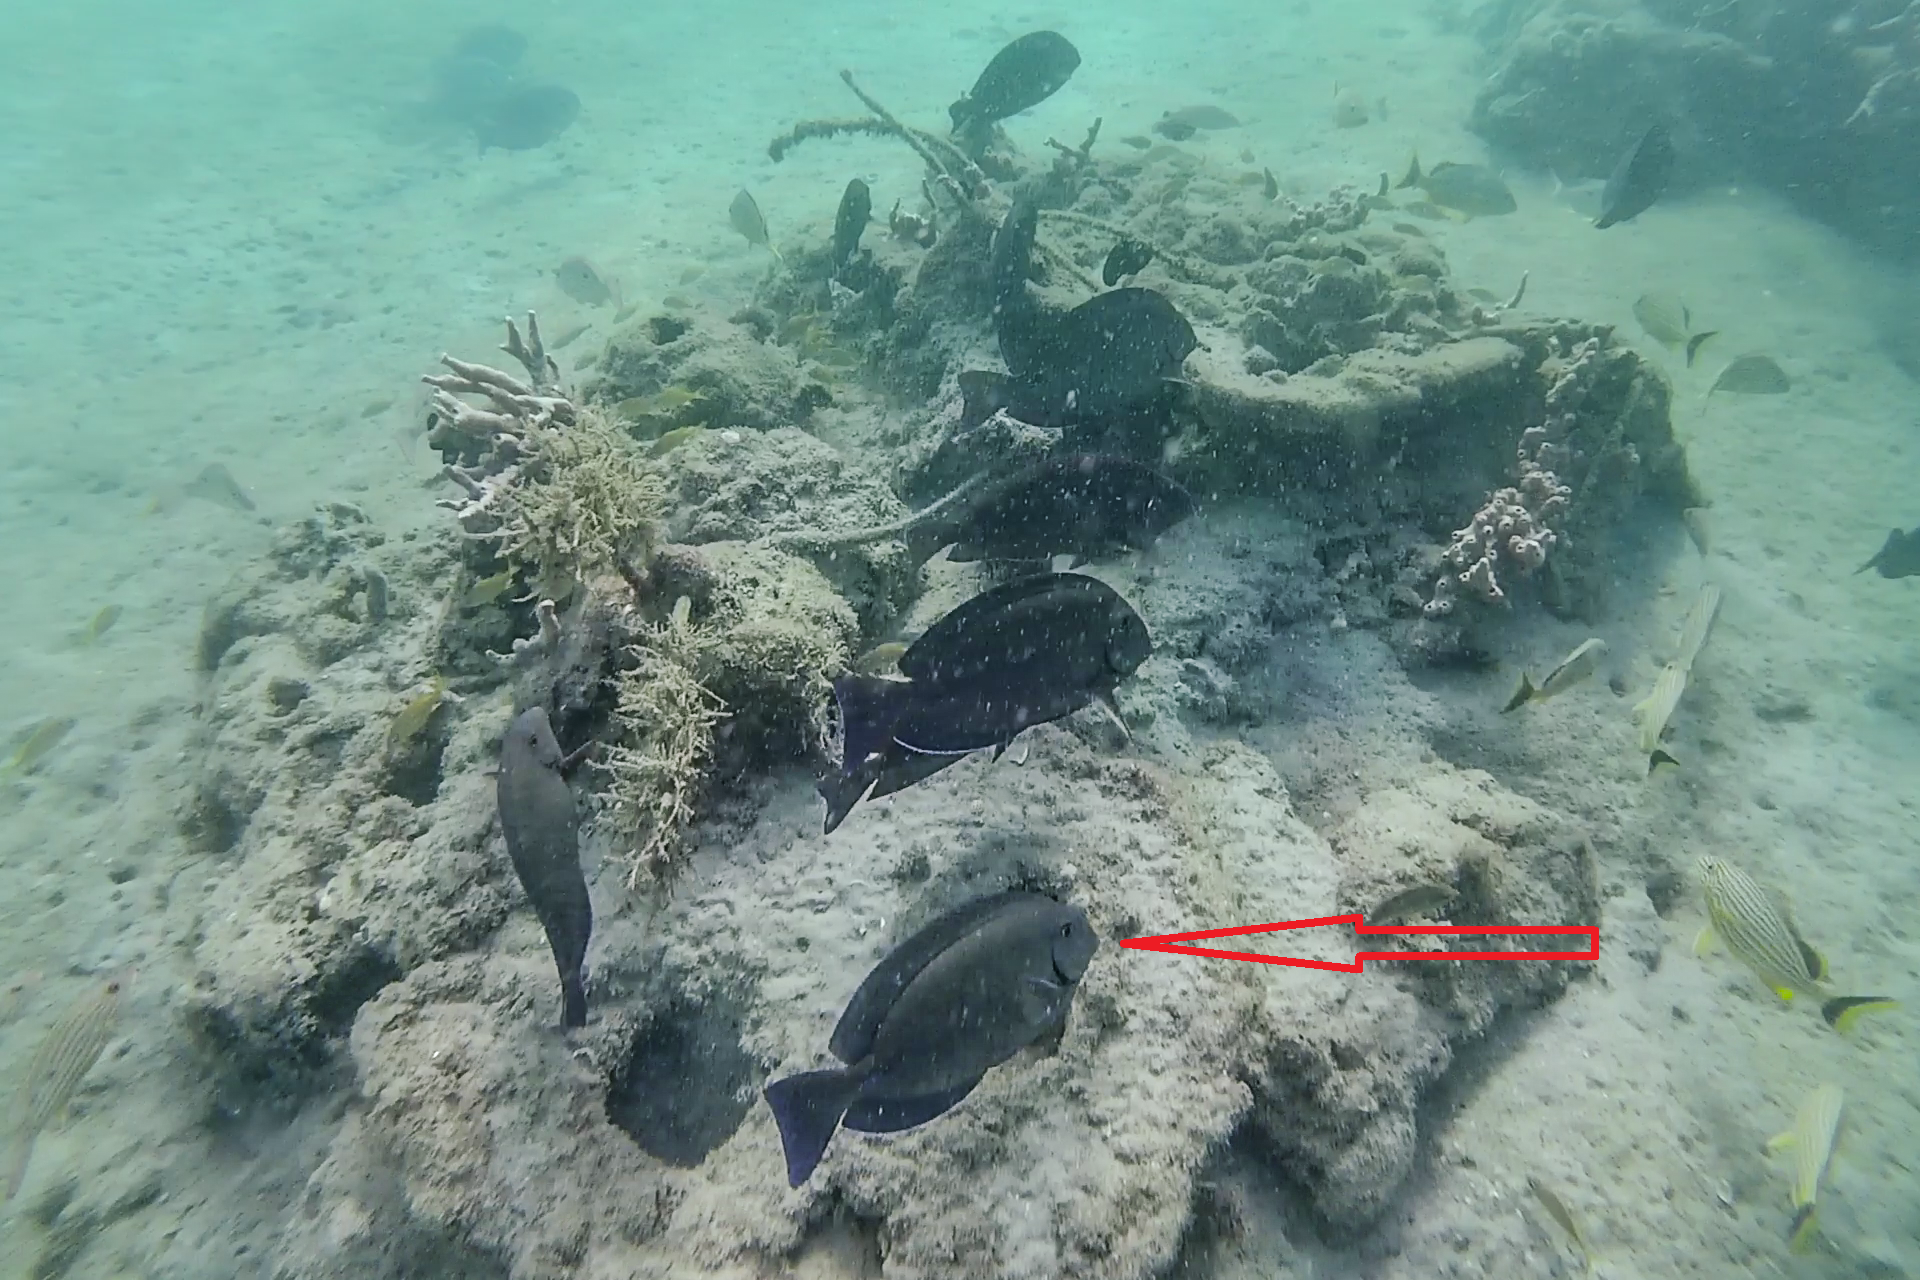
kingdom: Animalia
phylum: Chordata
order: Perciformes
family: Acanthuridae
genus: Acanthurus
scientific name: Acanthurus chirurgus
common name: Doctorfish
